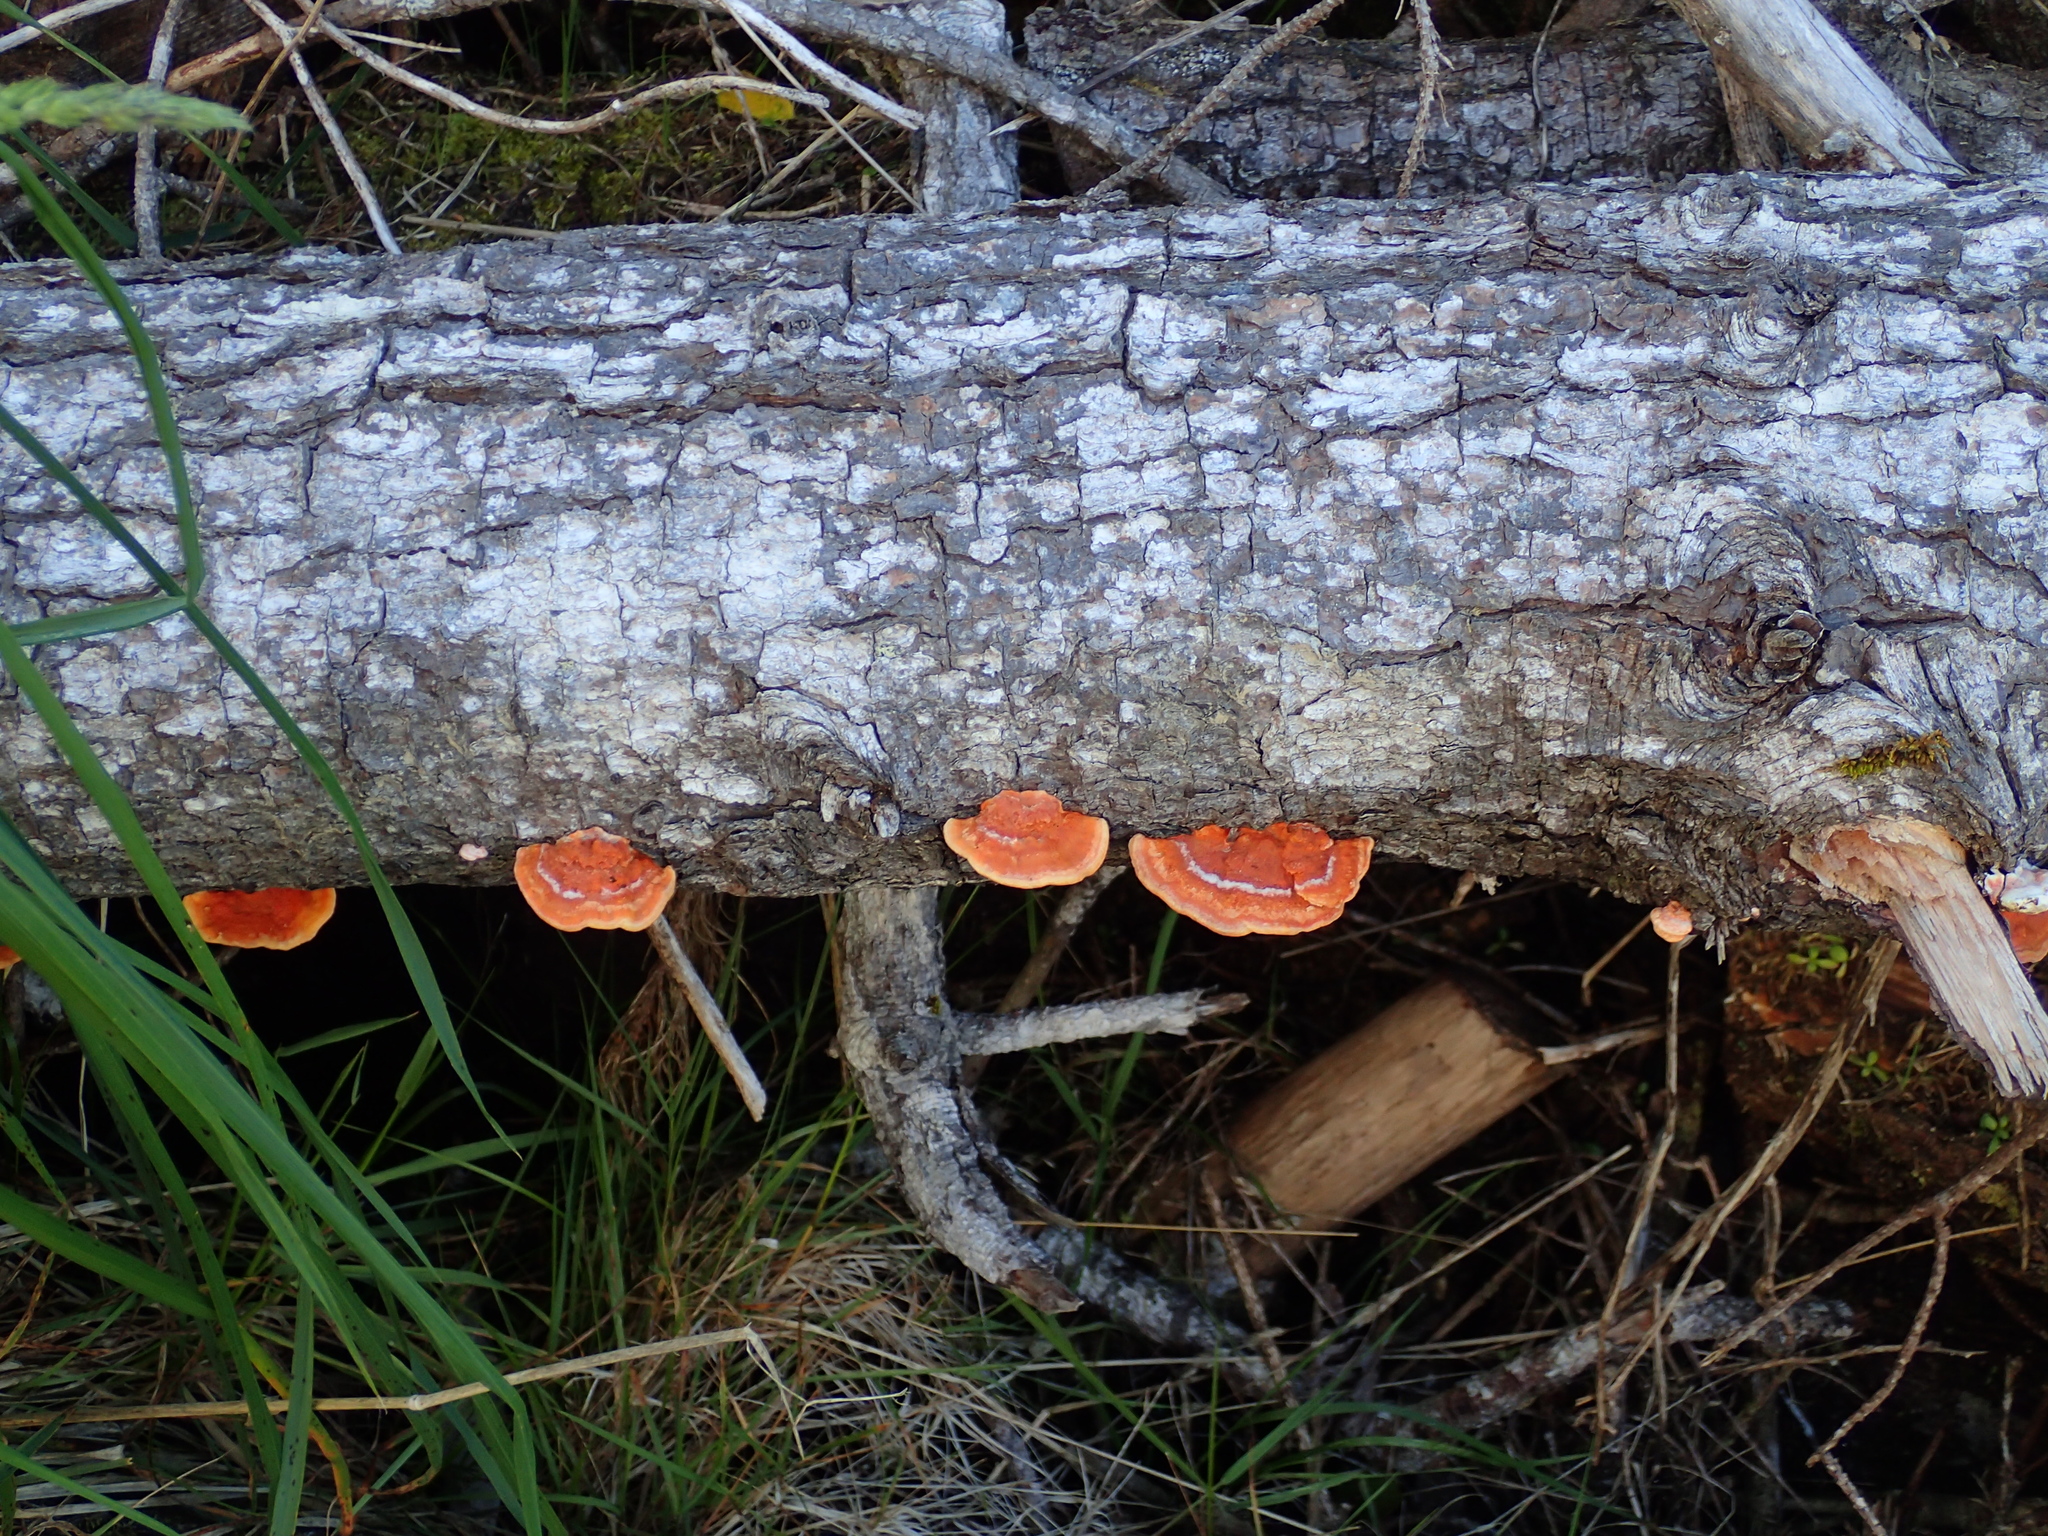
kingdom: Fungi
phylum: Basidiomycota
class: Agaricomycetes
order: Polyporales
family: Polyporaceae
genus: Trametes
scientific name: Trametes coccinea
